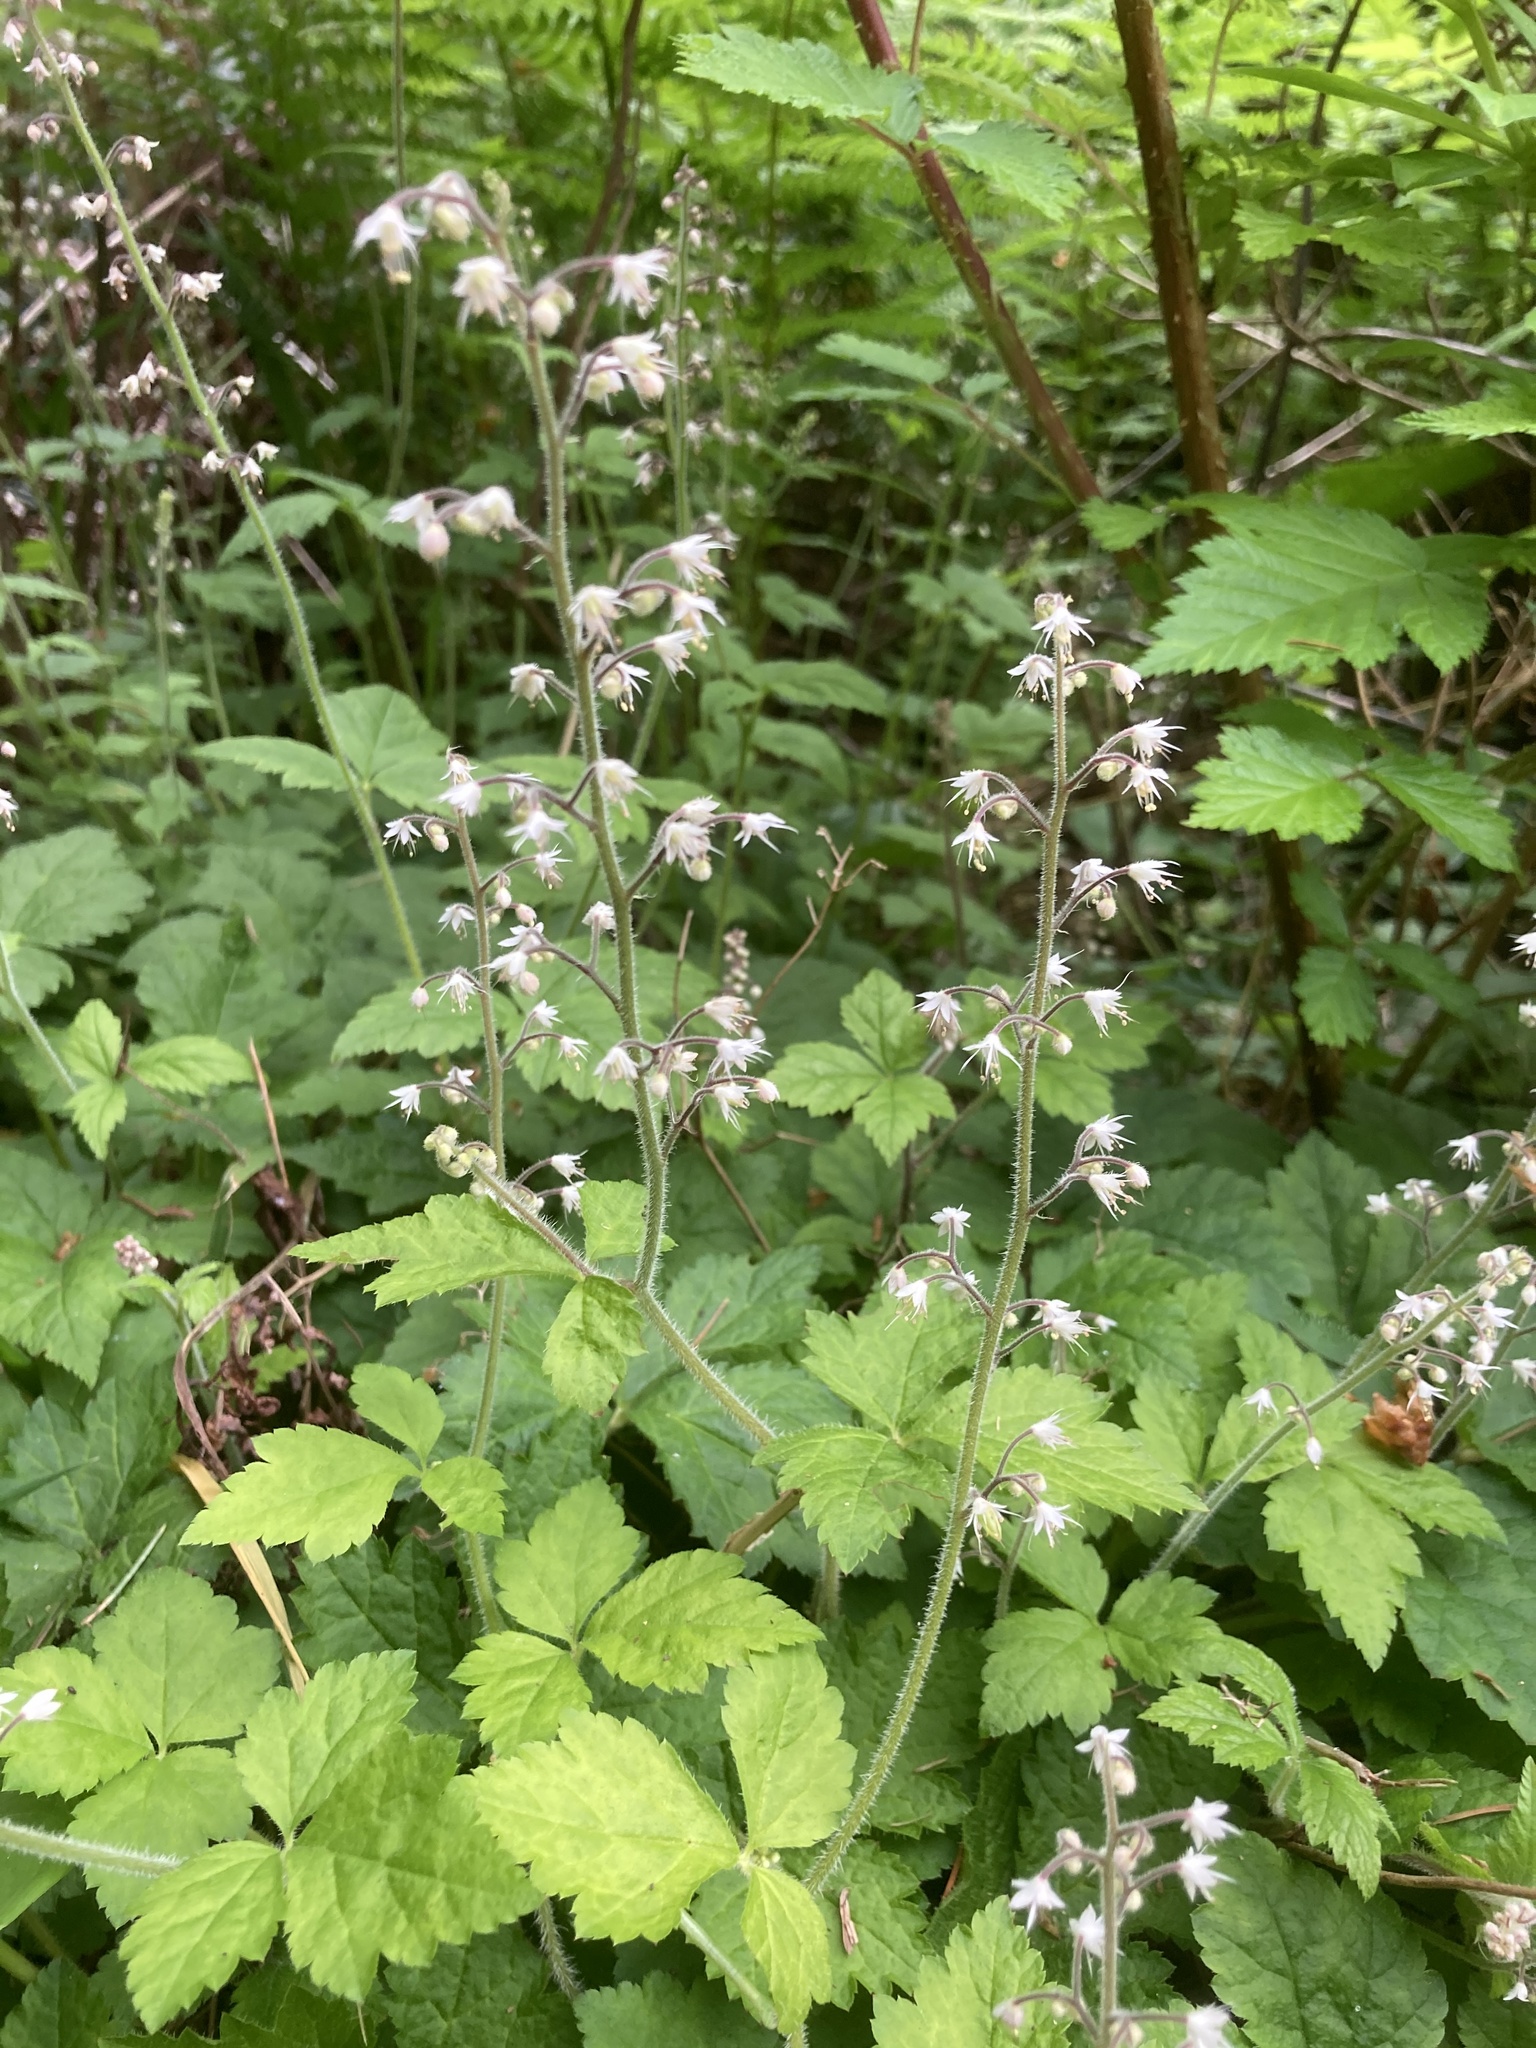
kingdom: Plantae
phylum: Tracheophyta
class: Magnoliopsida
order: Saxifragales
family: Saxifragaceae
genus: Tiarella
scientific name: Tiarella trifoliata
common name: Sugar-scoop
